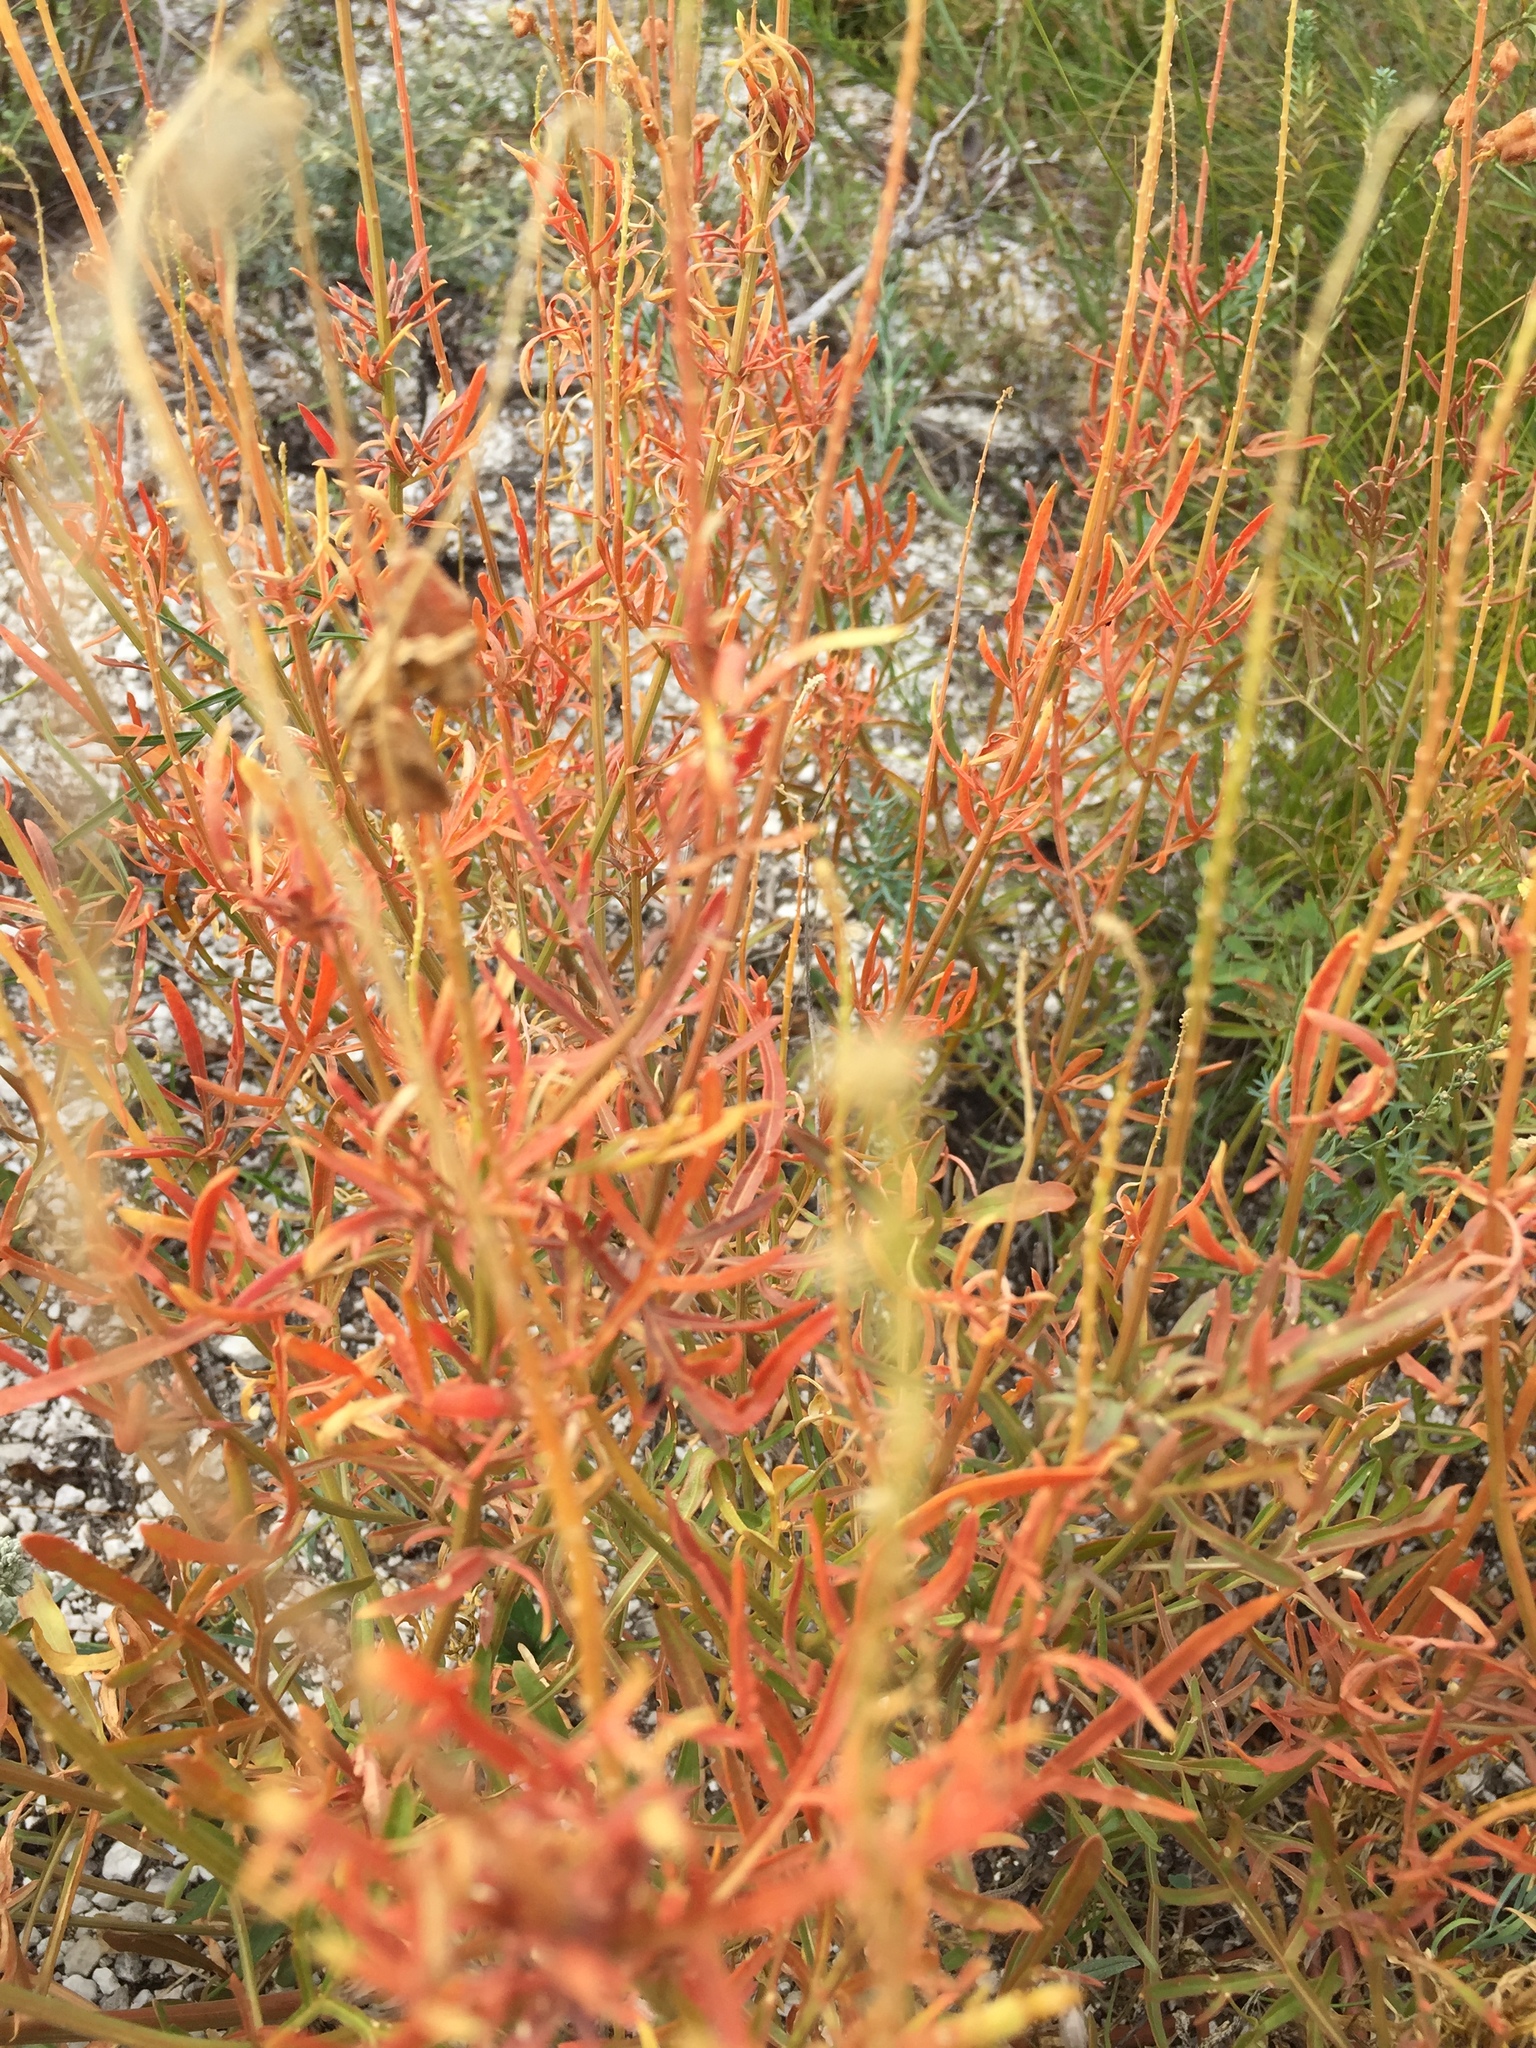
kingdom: Plantae
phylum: Tracheophyta
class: Magnoliopsida
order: Brassicales
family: Resedaceae
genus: Reseda
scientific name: Reseda lutea
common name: Wild mignonette
